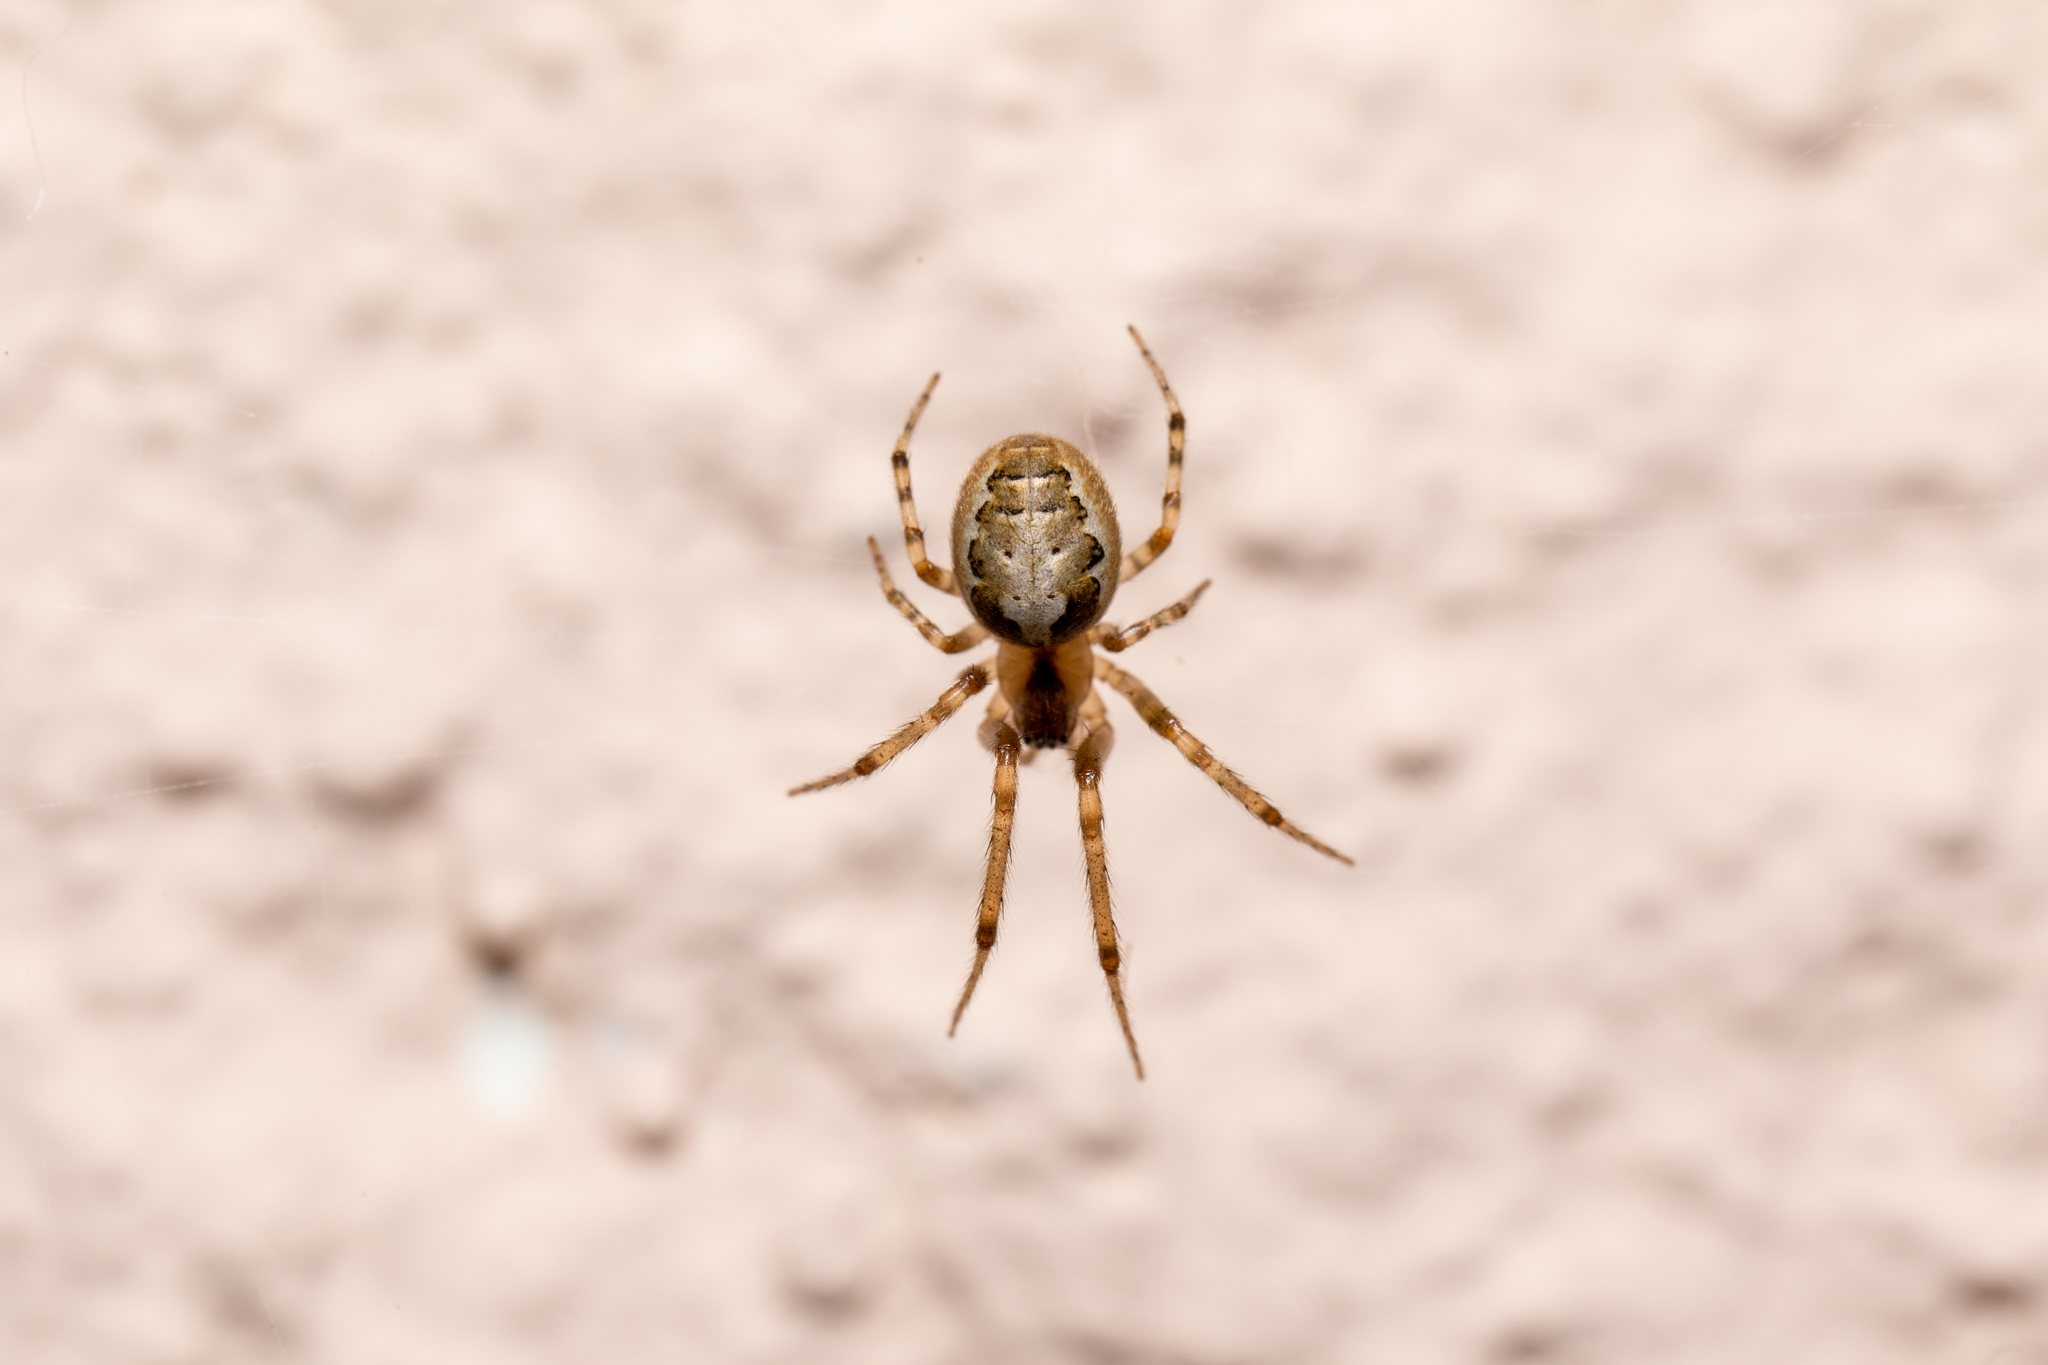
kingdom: Animalia
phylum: Arthropoda
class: Arachnida
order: Araneae
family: Araneidae
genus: Zygiella
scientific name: Zygiella x-notata
